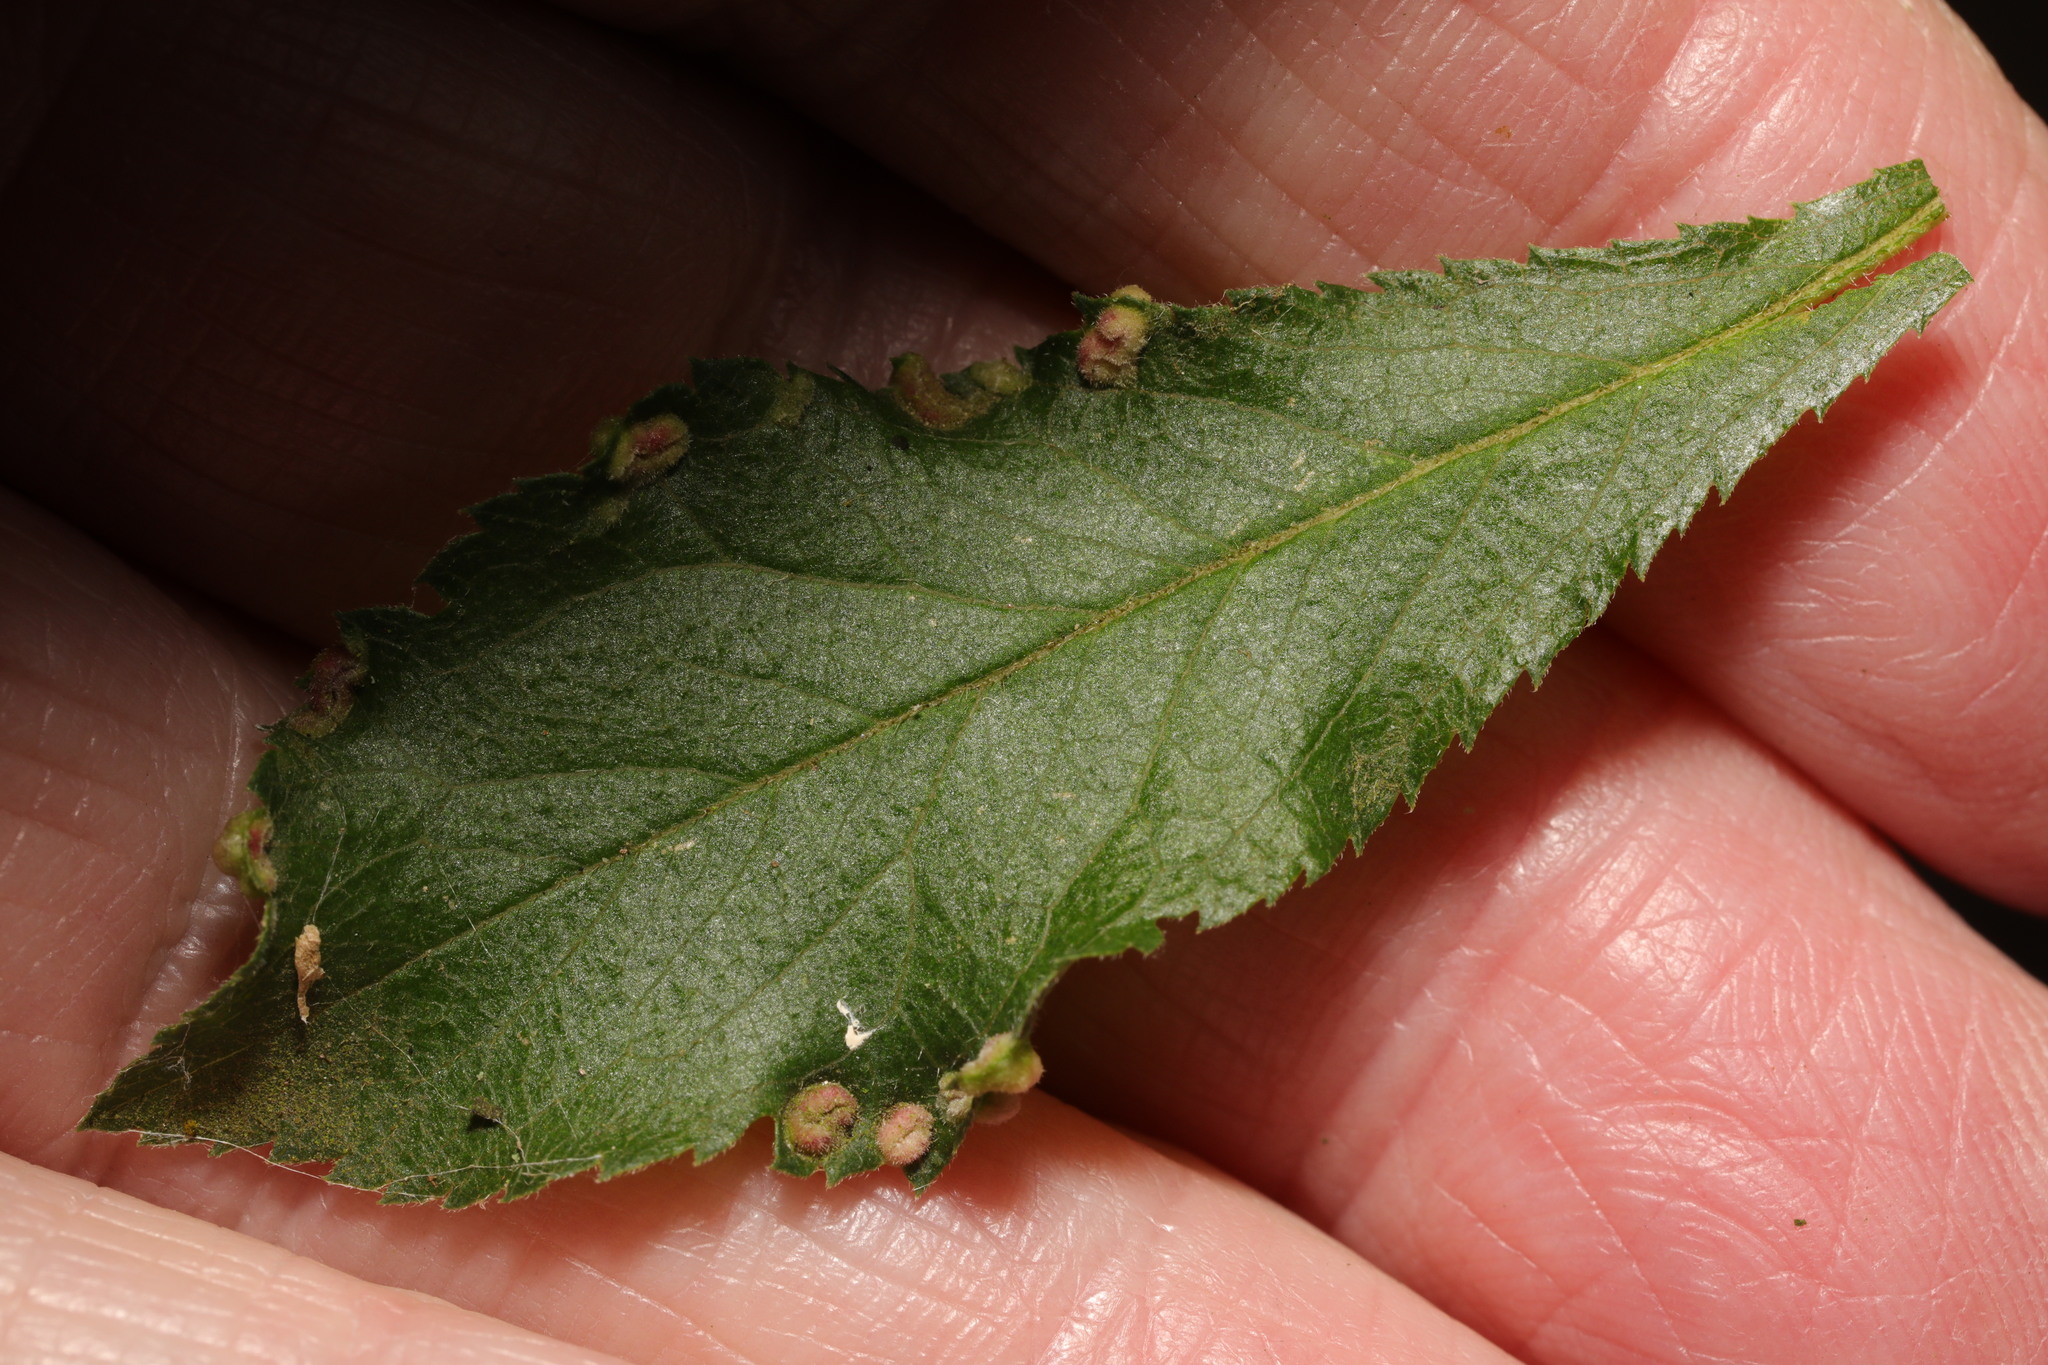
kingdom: Animalia
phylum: Arthropoda
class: Arachnida
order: Trombidiformes
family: Eriophyidae
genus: Eriophyes
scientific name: Eriophyes similis
